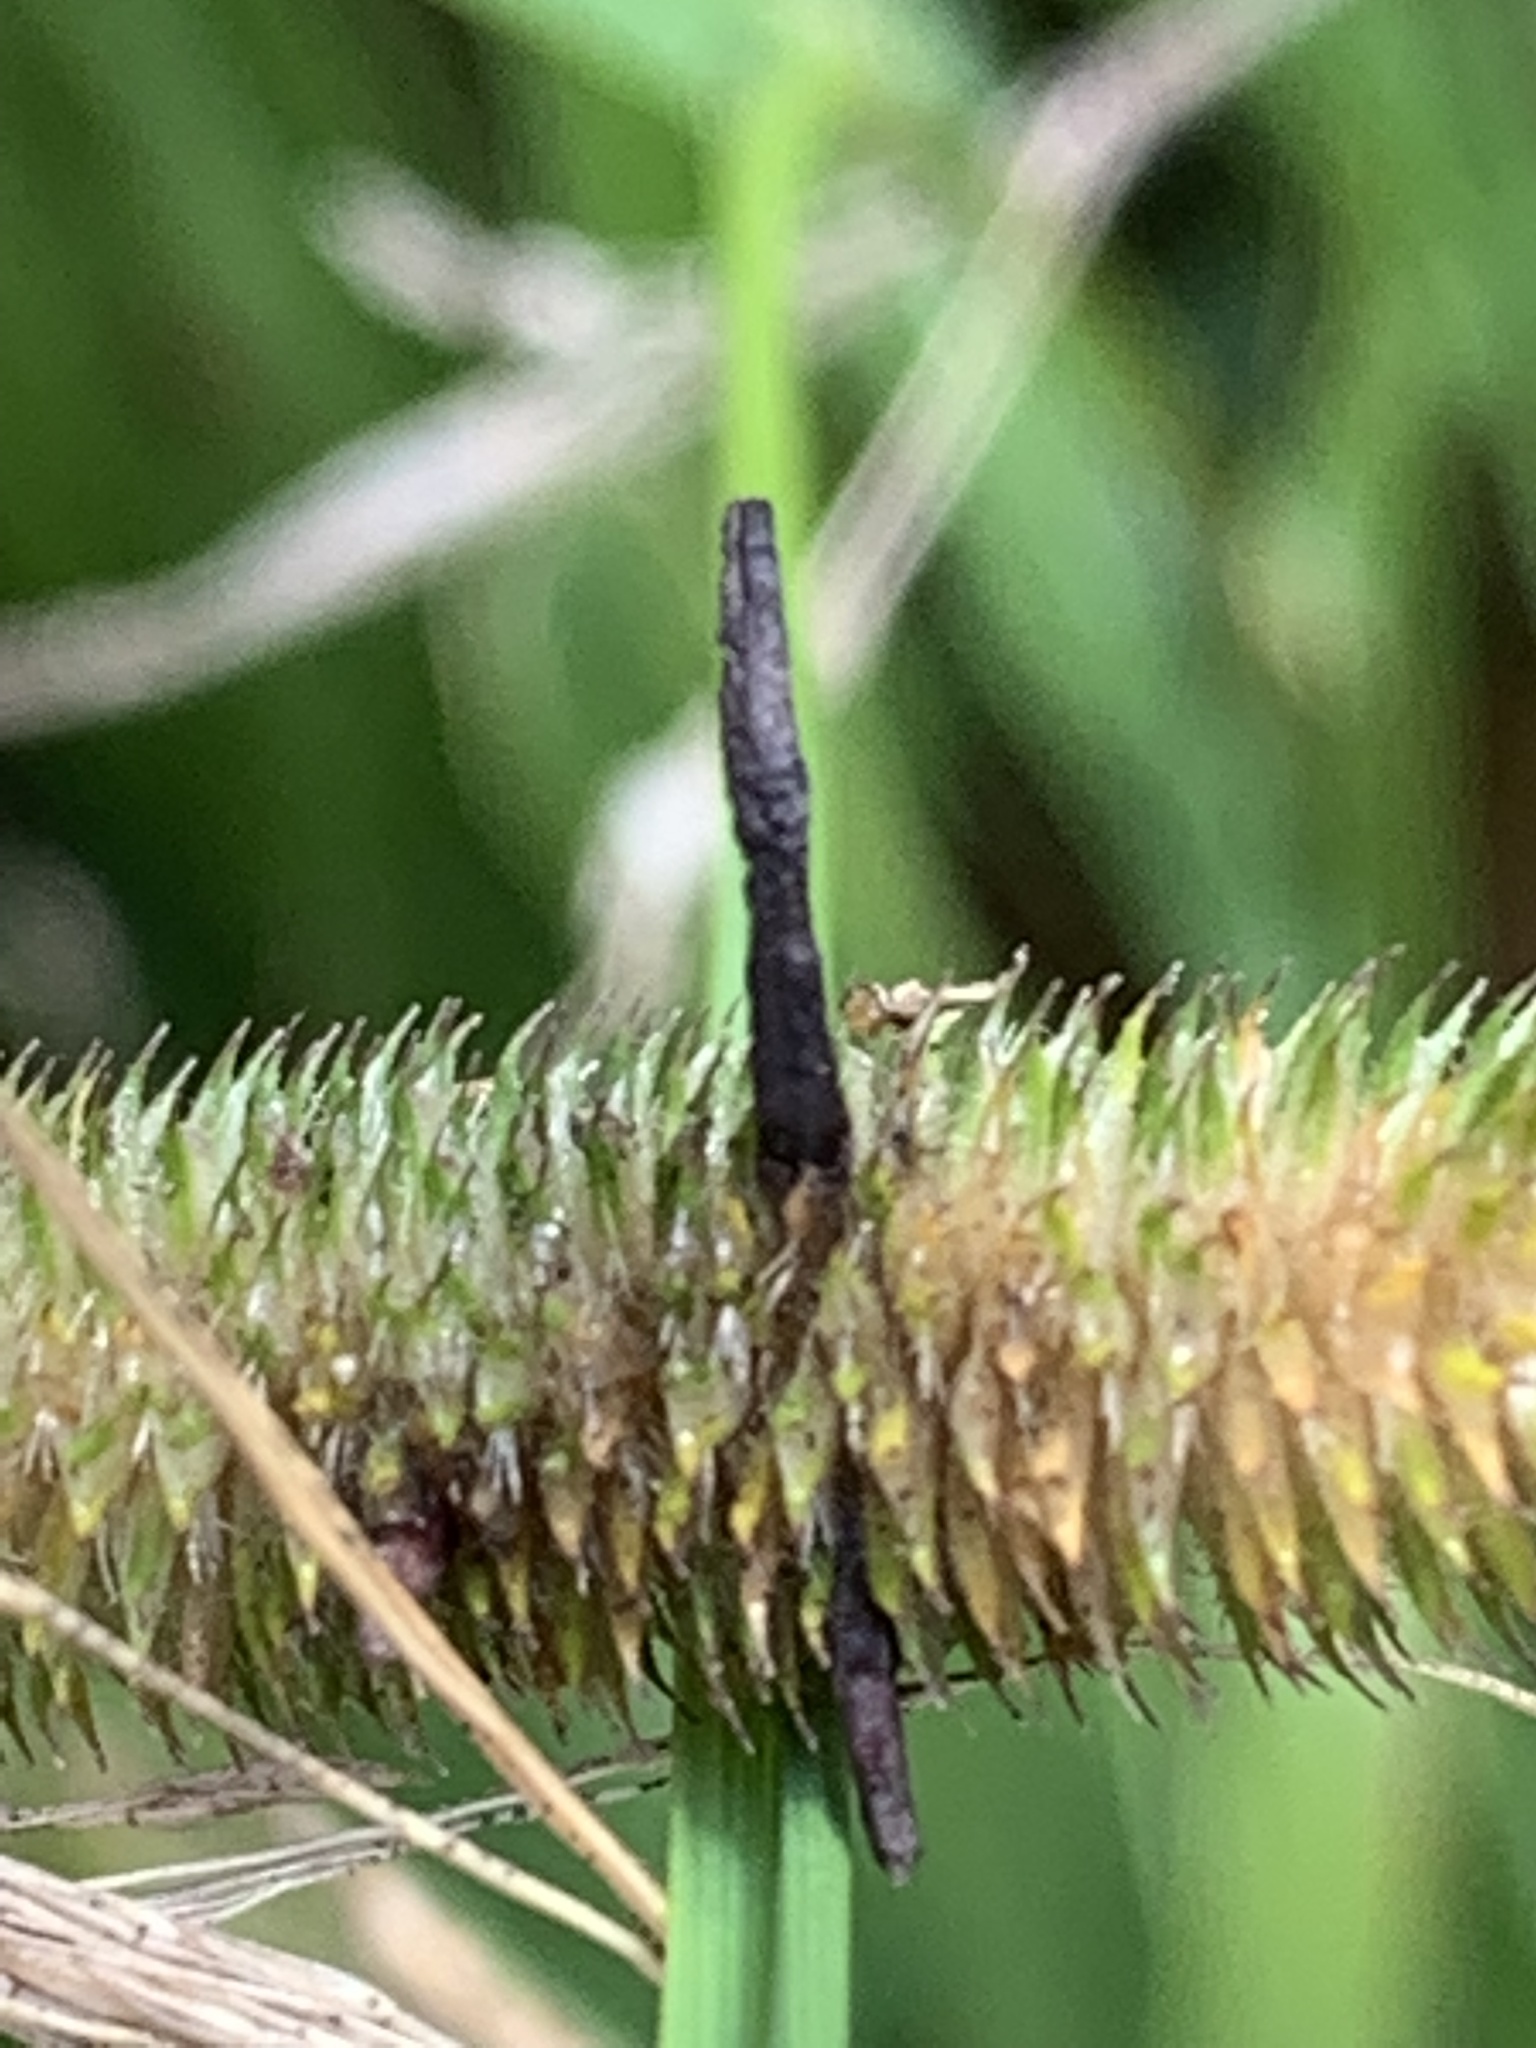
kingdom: Fungi
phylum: Ascomycota
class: Sordariomycetes
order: Hypocreales
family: Clavicipitaceae
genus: Claviceps
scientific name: Claviceps purpurea
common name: Rye ergot
